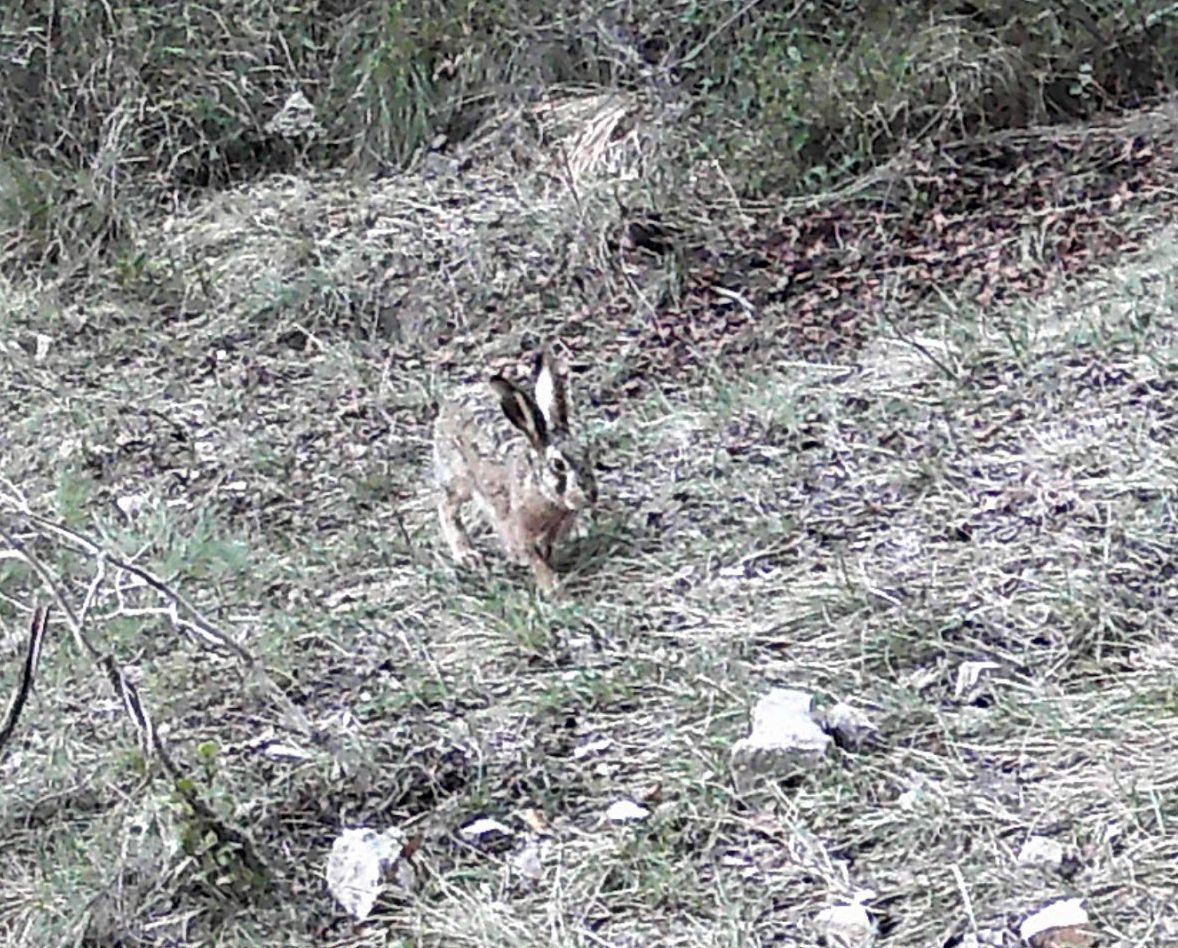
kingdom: Animalia
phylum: Chordata
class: Mammalia
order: Lagomorpha
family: Leporidae
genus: Lepus
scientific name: Lepus europaeus
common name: European hare
